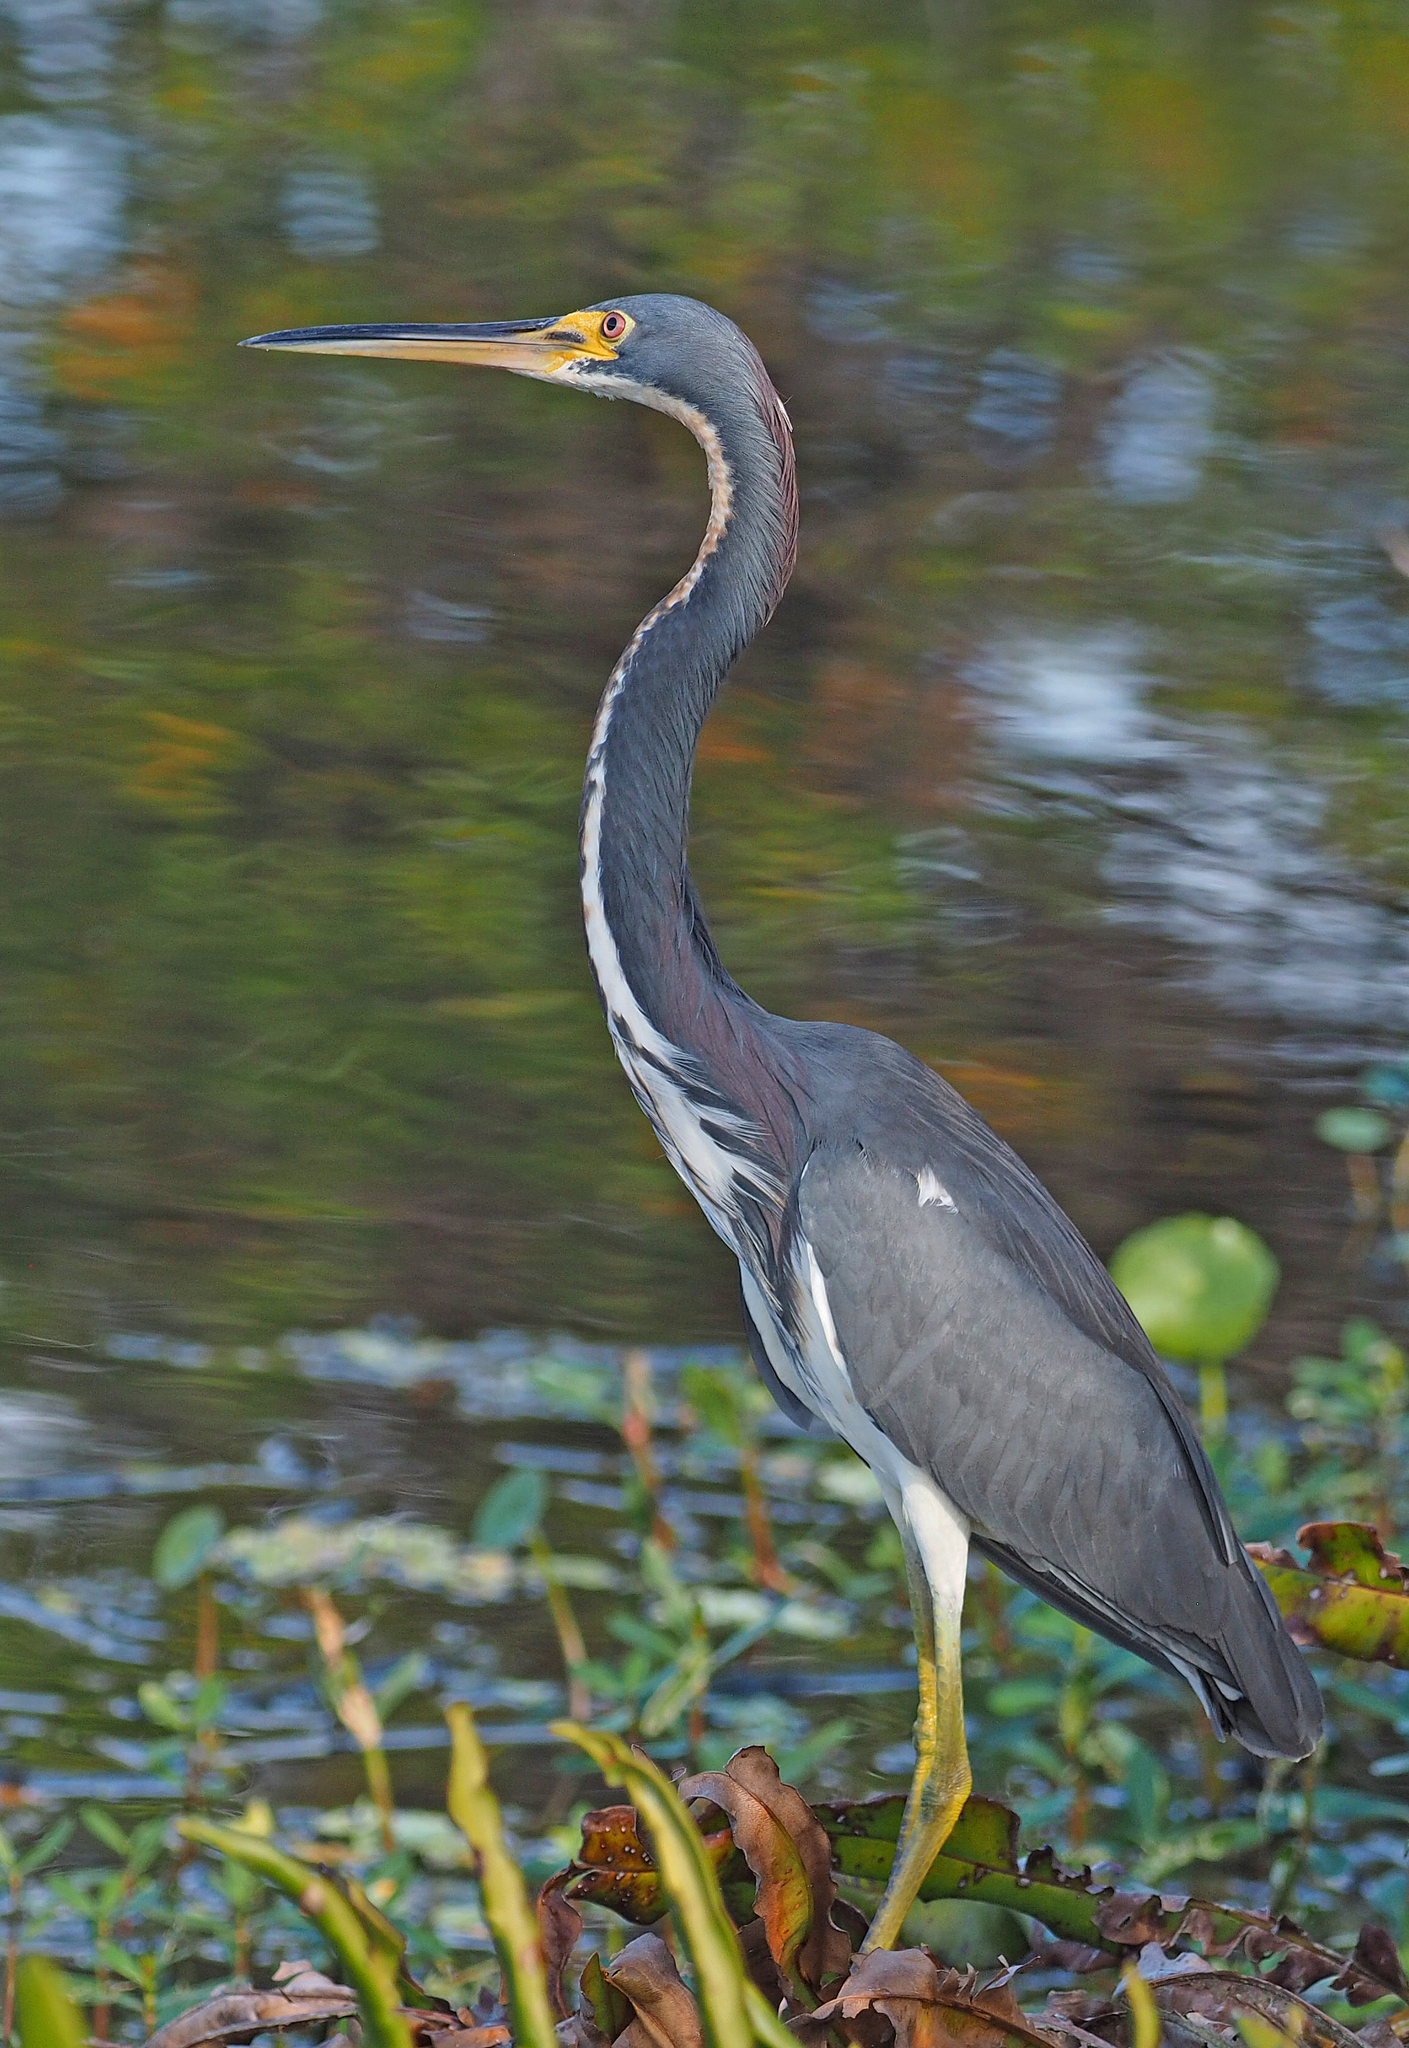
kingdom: Animalia
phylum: Chordata
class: Aves
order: Pelecaniformes
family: Ardeidae
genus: Egretta
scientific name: Egretta tricolor
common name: Tricolored heron
